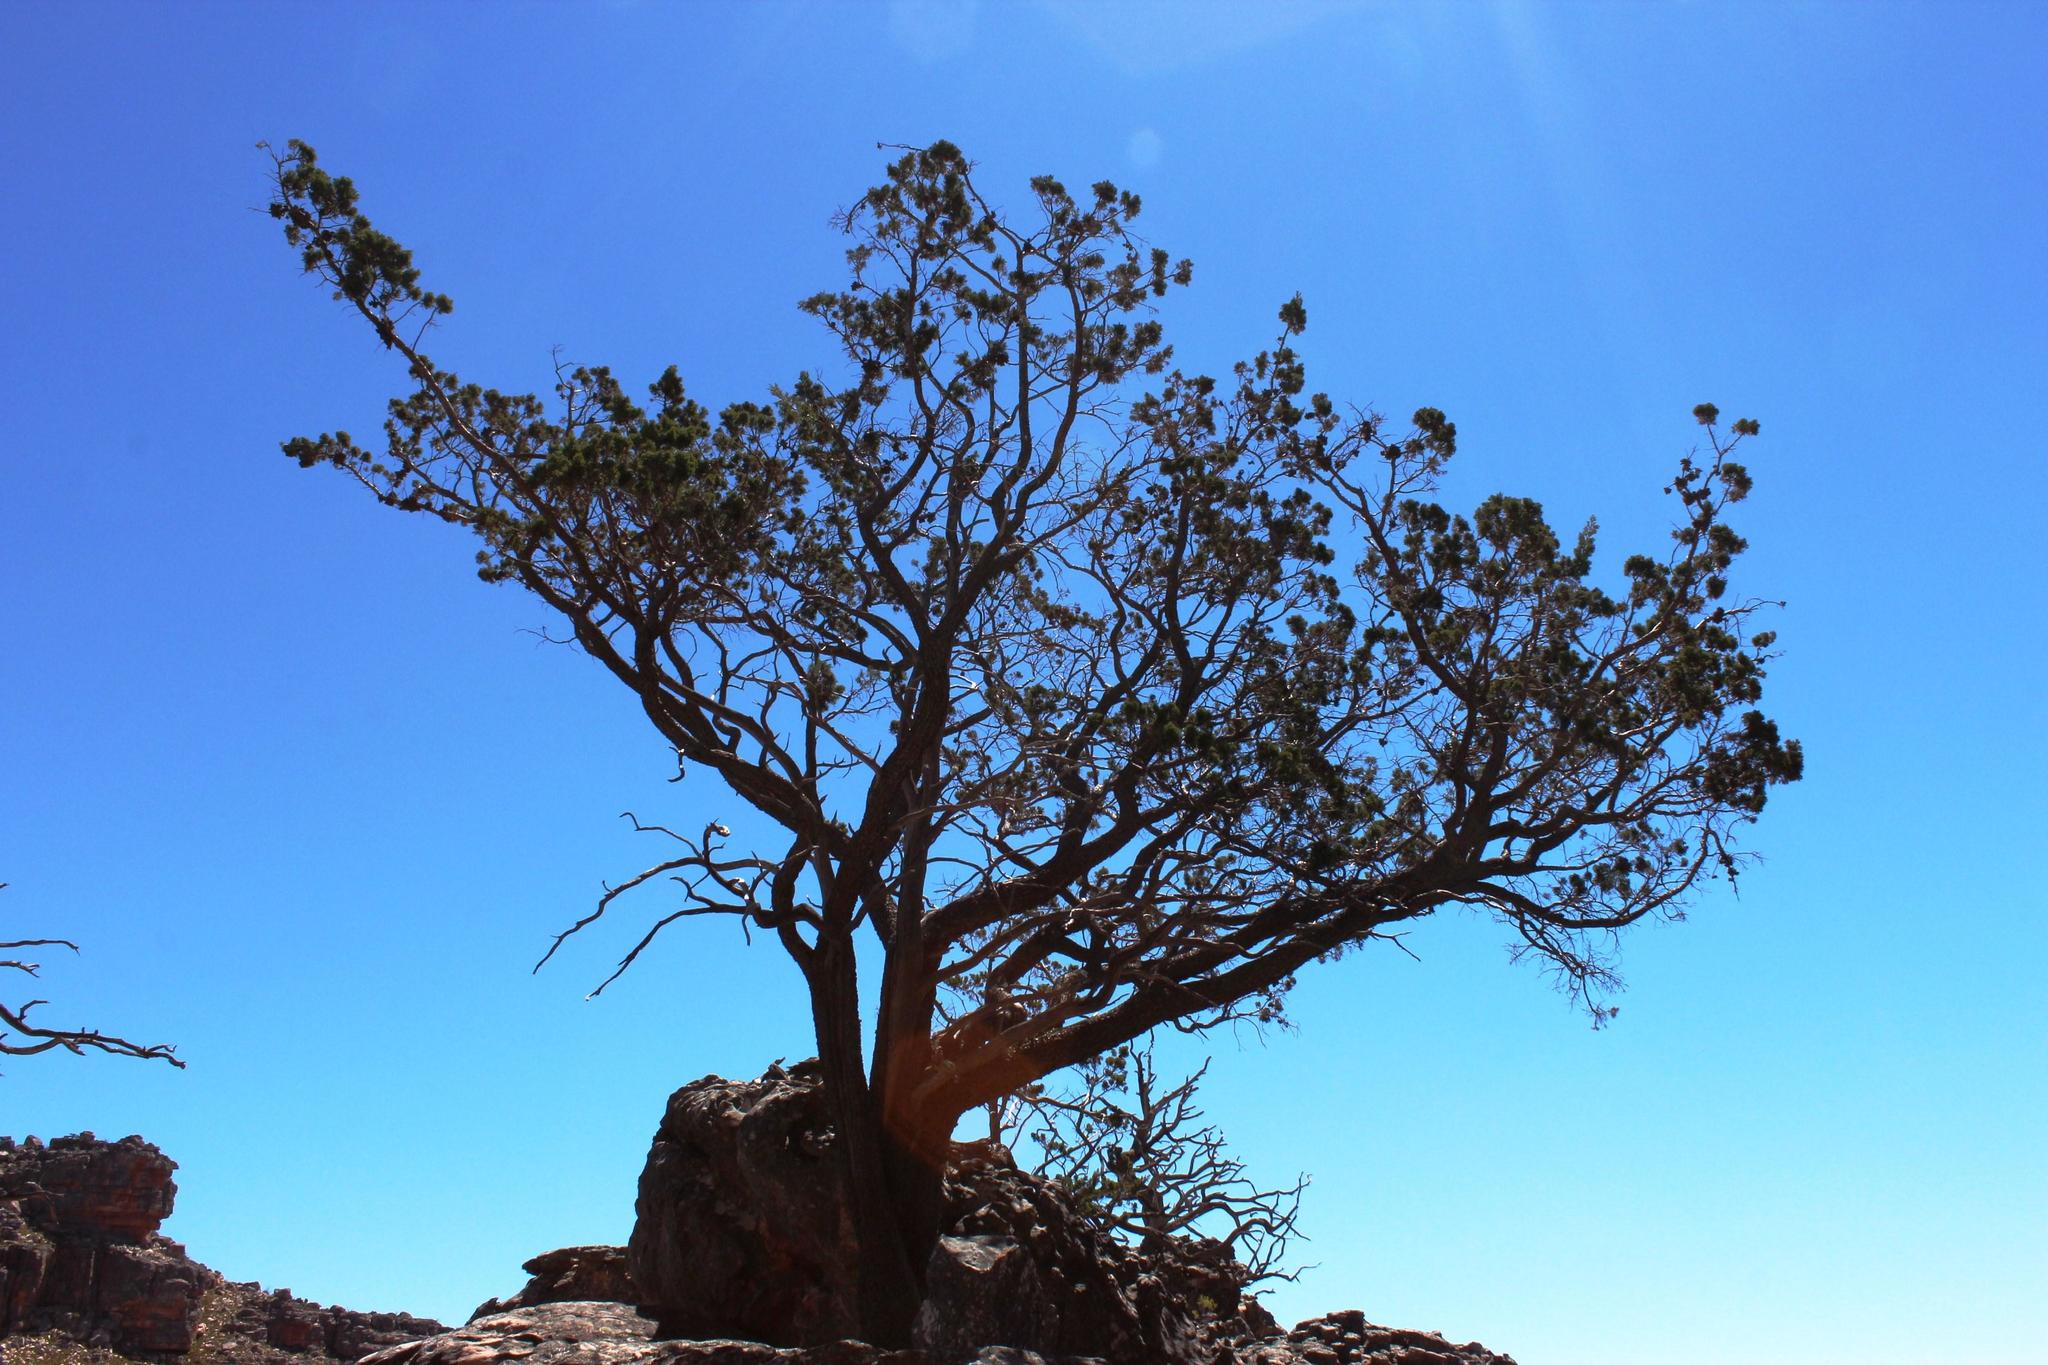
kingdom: Plantae
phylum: Tracheophyta
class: Pinopsida
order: Pinales
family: Cupressaceae
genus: Widdringtonia
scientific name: Widdringtonia nodiflora
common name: Cape cypress
